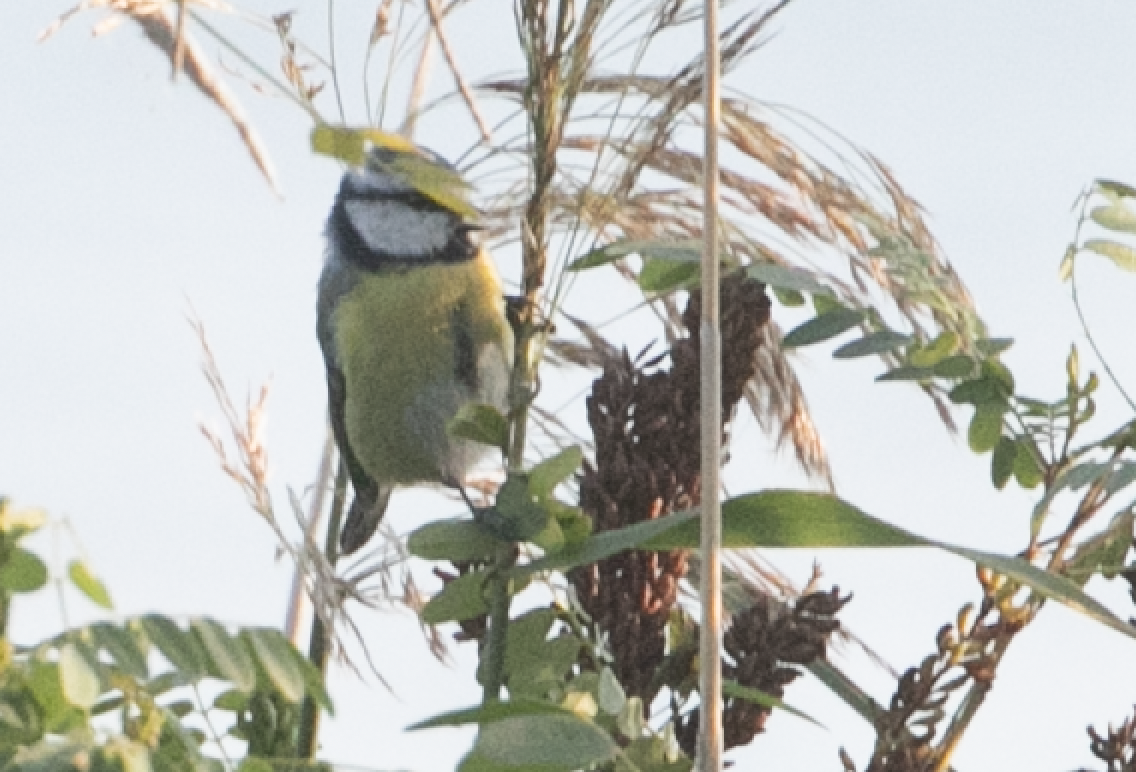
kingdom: Animalia
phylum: Chordata
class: Aves
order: Passeriformes
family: Paridae
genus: Cyanistes
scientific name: Cyanistes caeruleus
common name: Eurasian blue tit
